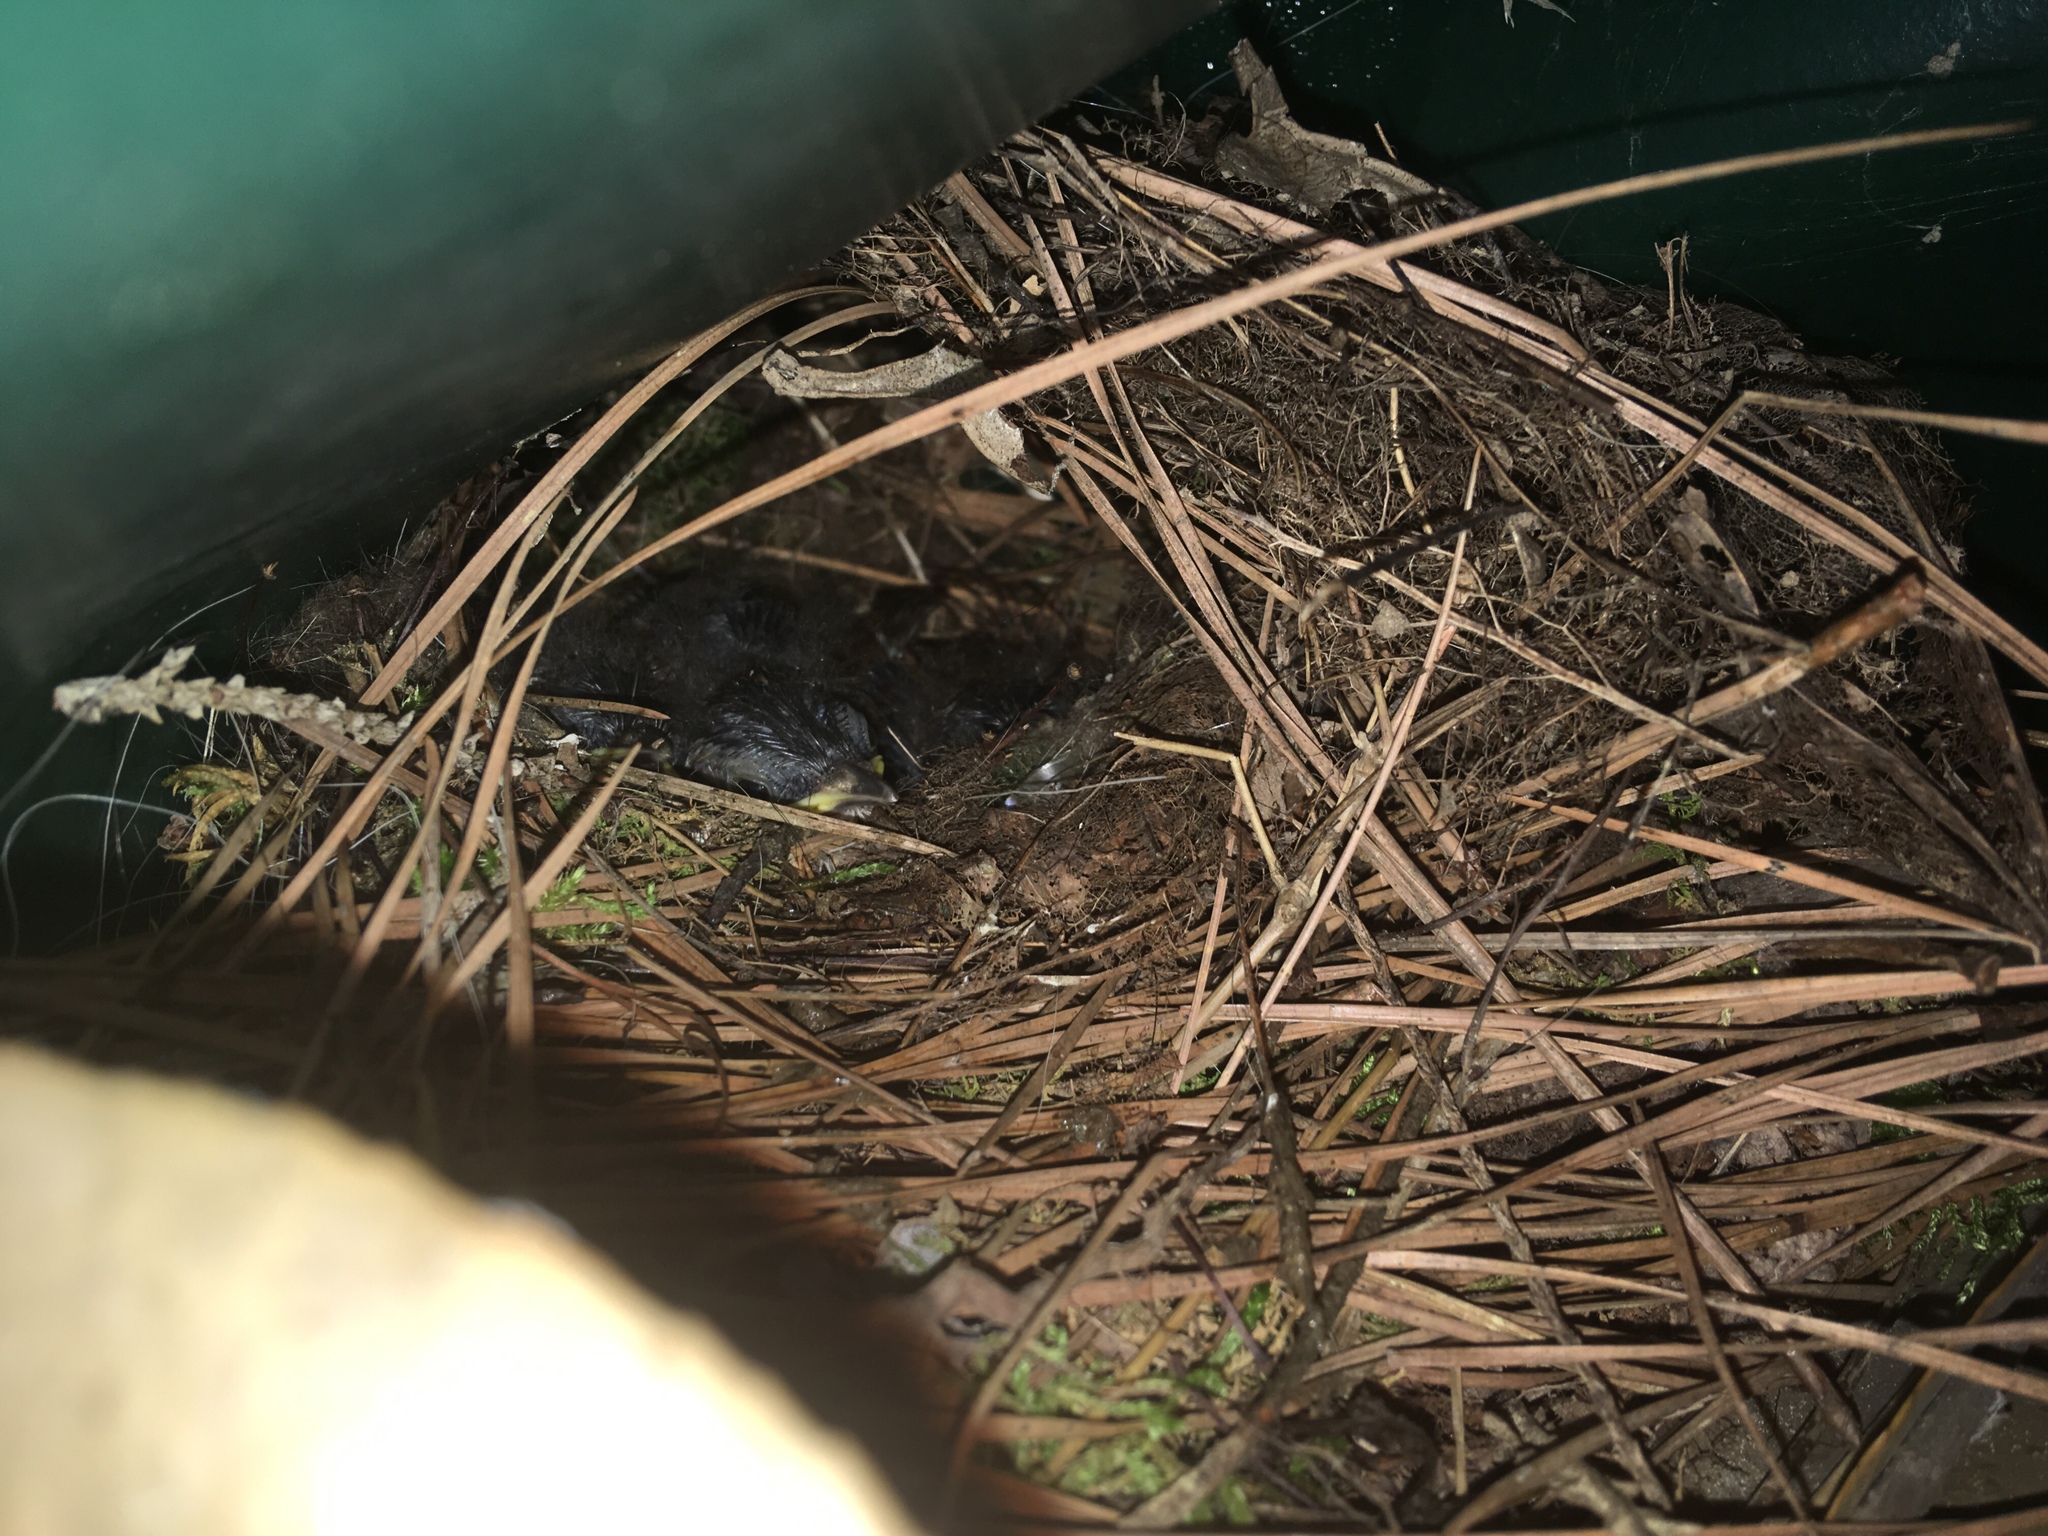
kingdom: Animalia
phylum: Chordata
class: Aves
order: Passeriformes
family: Troglodytidae
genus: Thryothorus
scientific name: Thryothorus ludovicianus
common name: Carolina wren
